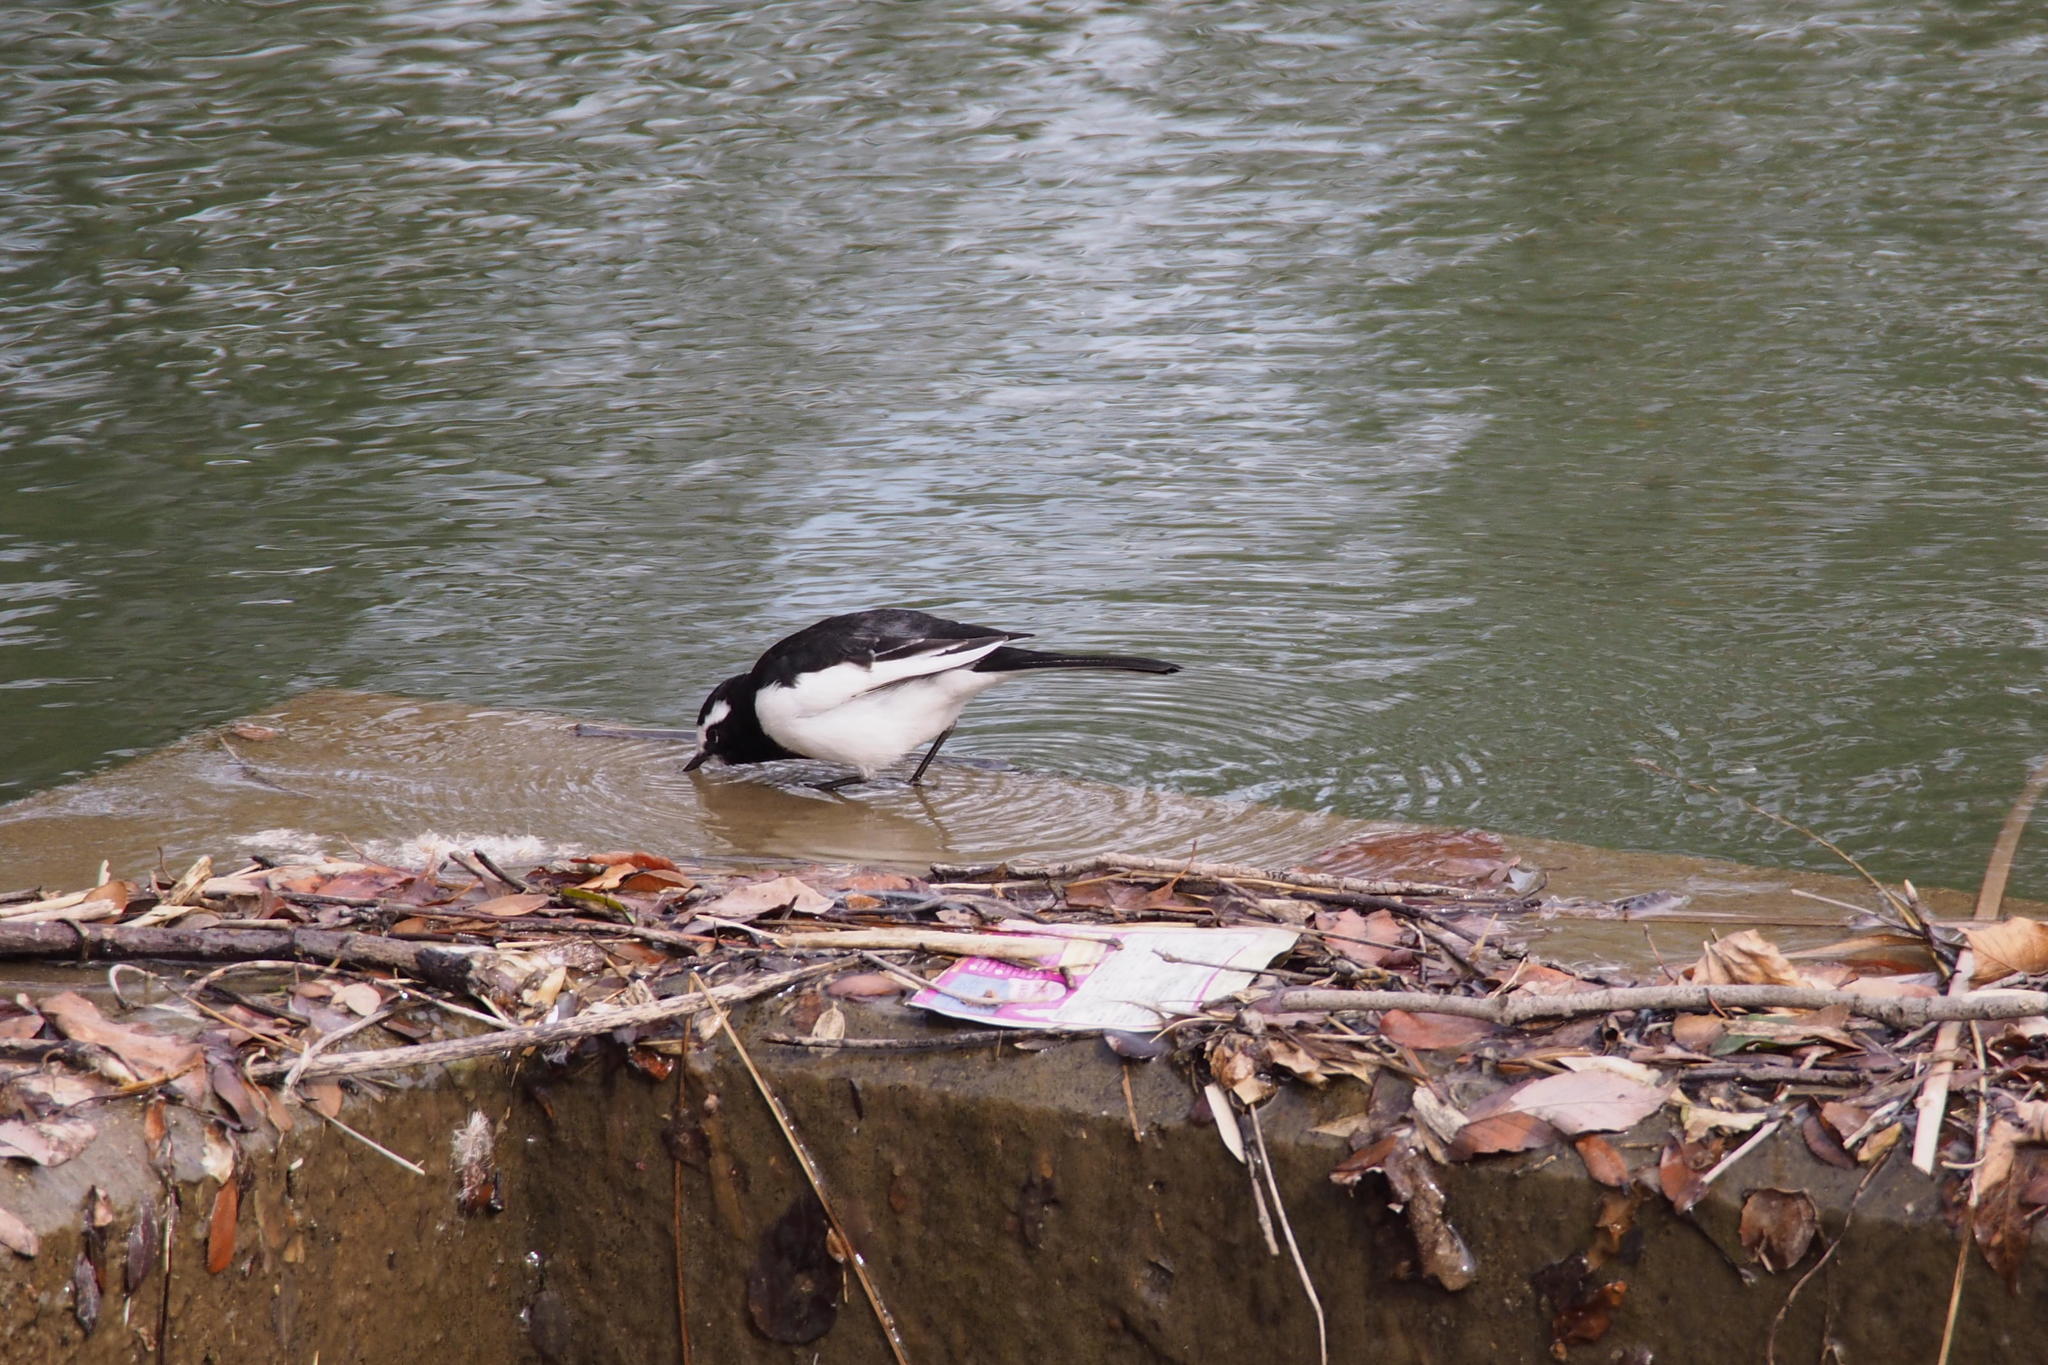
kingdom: Animalia
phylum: Chordata
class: Aves
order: Passeriformes
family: Motacillidae
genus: Motacilla
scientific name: Motacilla grandis
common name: Japanese wagtail
